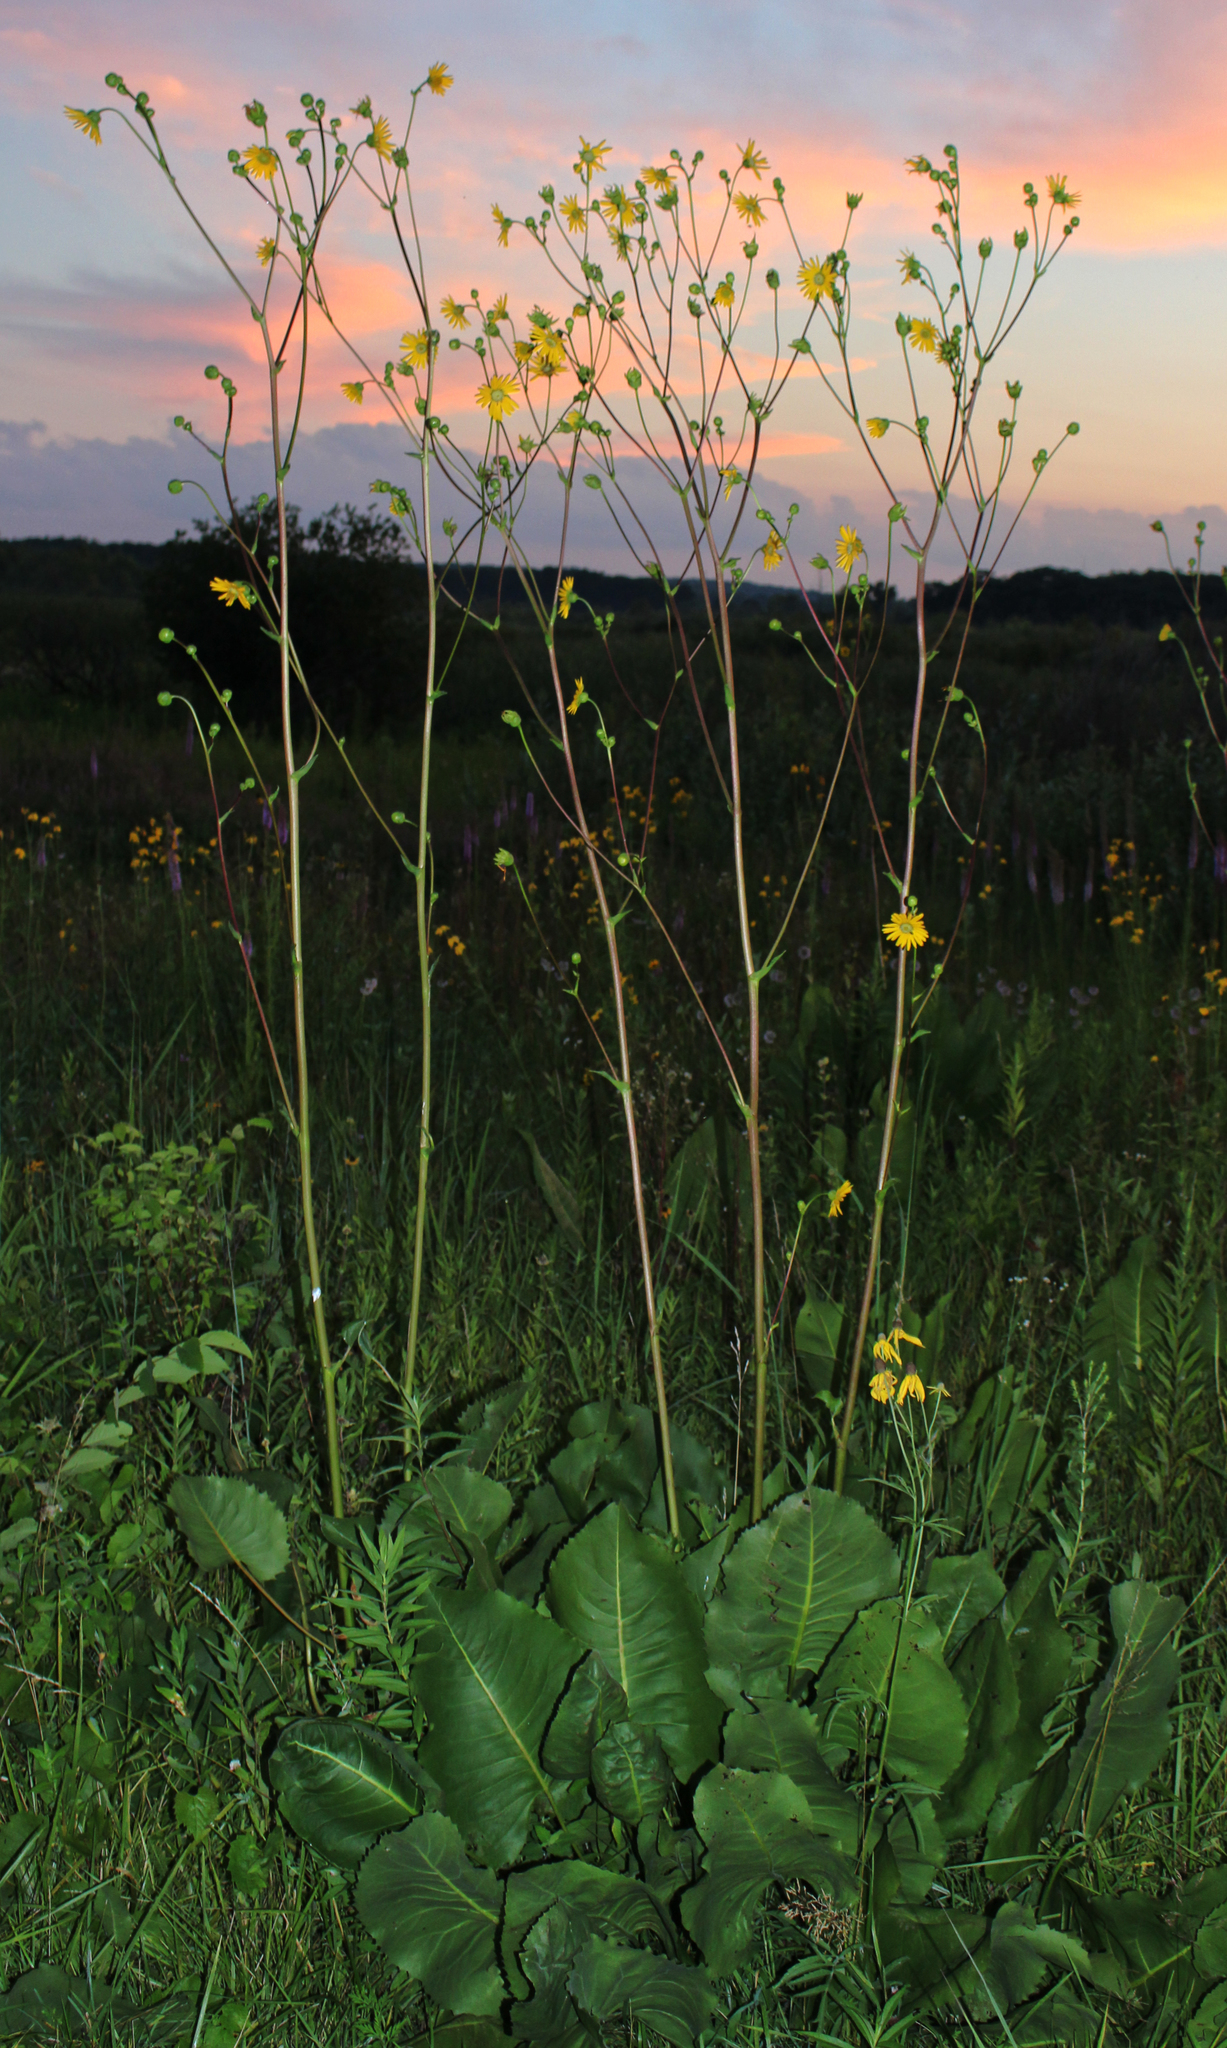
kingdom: Plantae
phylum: Tracheophyta
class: Magnoliopsida
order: Asterales
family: Asteraceae
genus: Silphium
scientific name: Silphium terebinthinaceum
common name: Basal-leaf rosinweed
